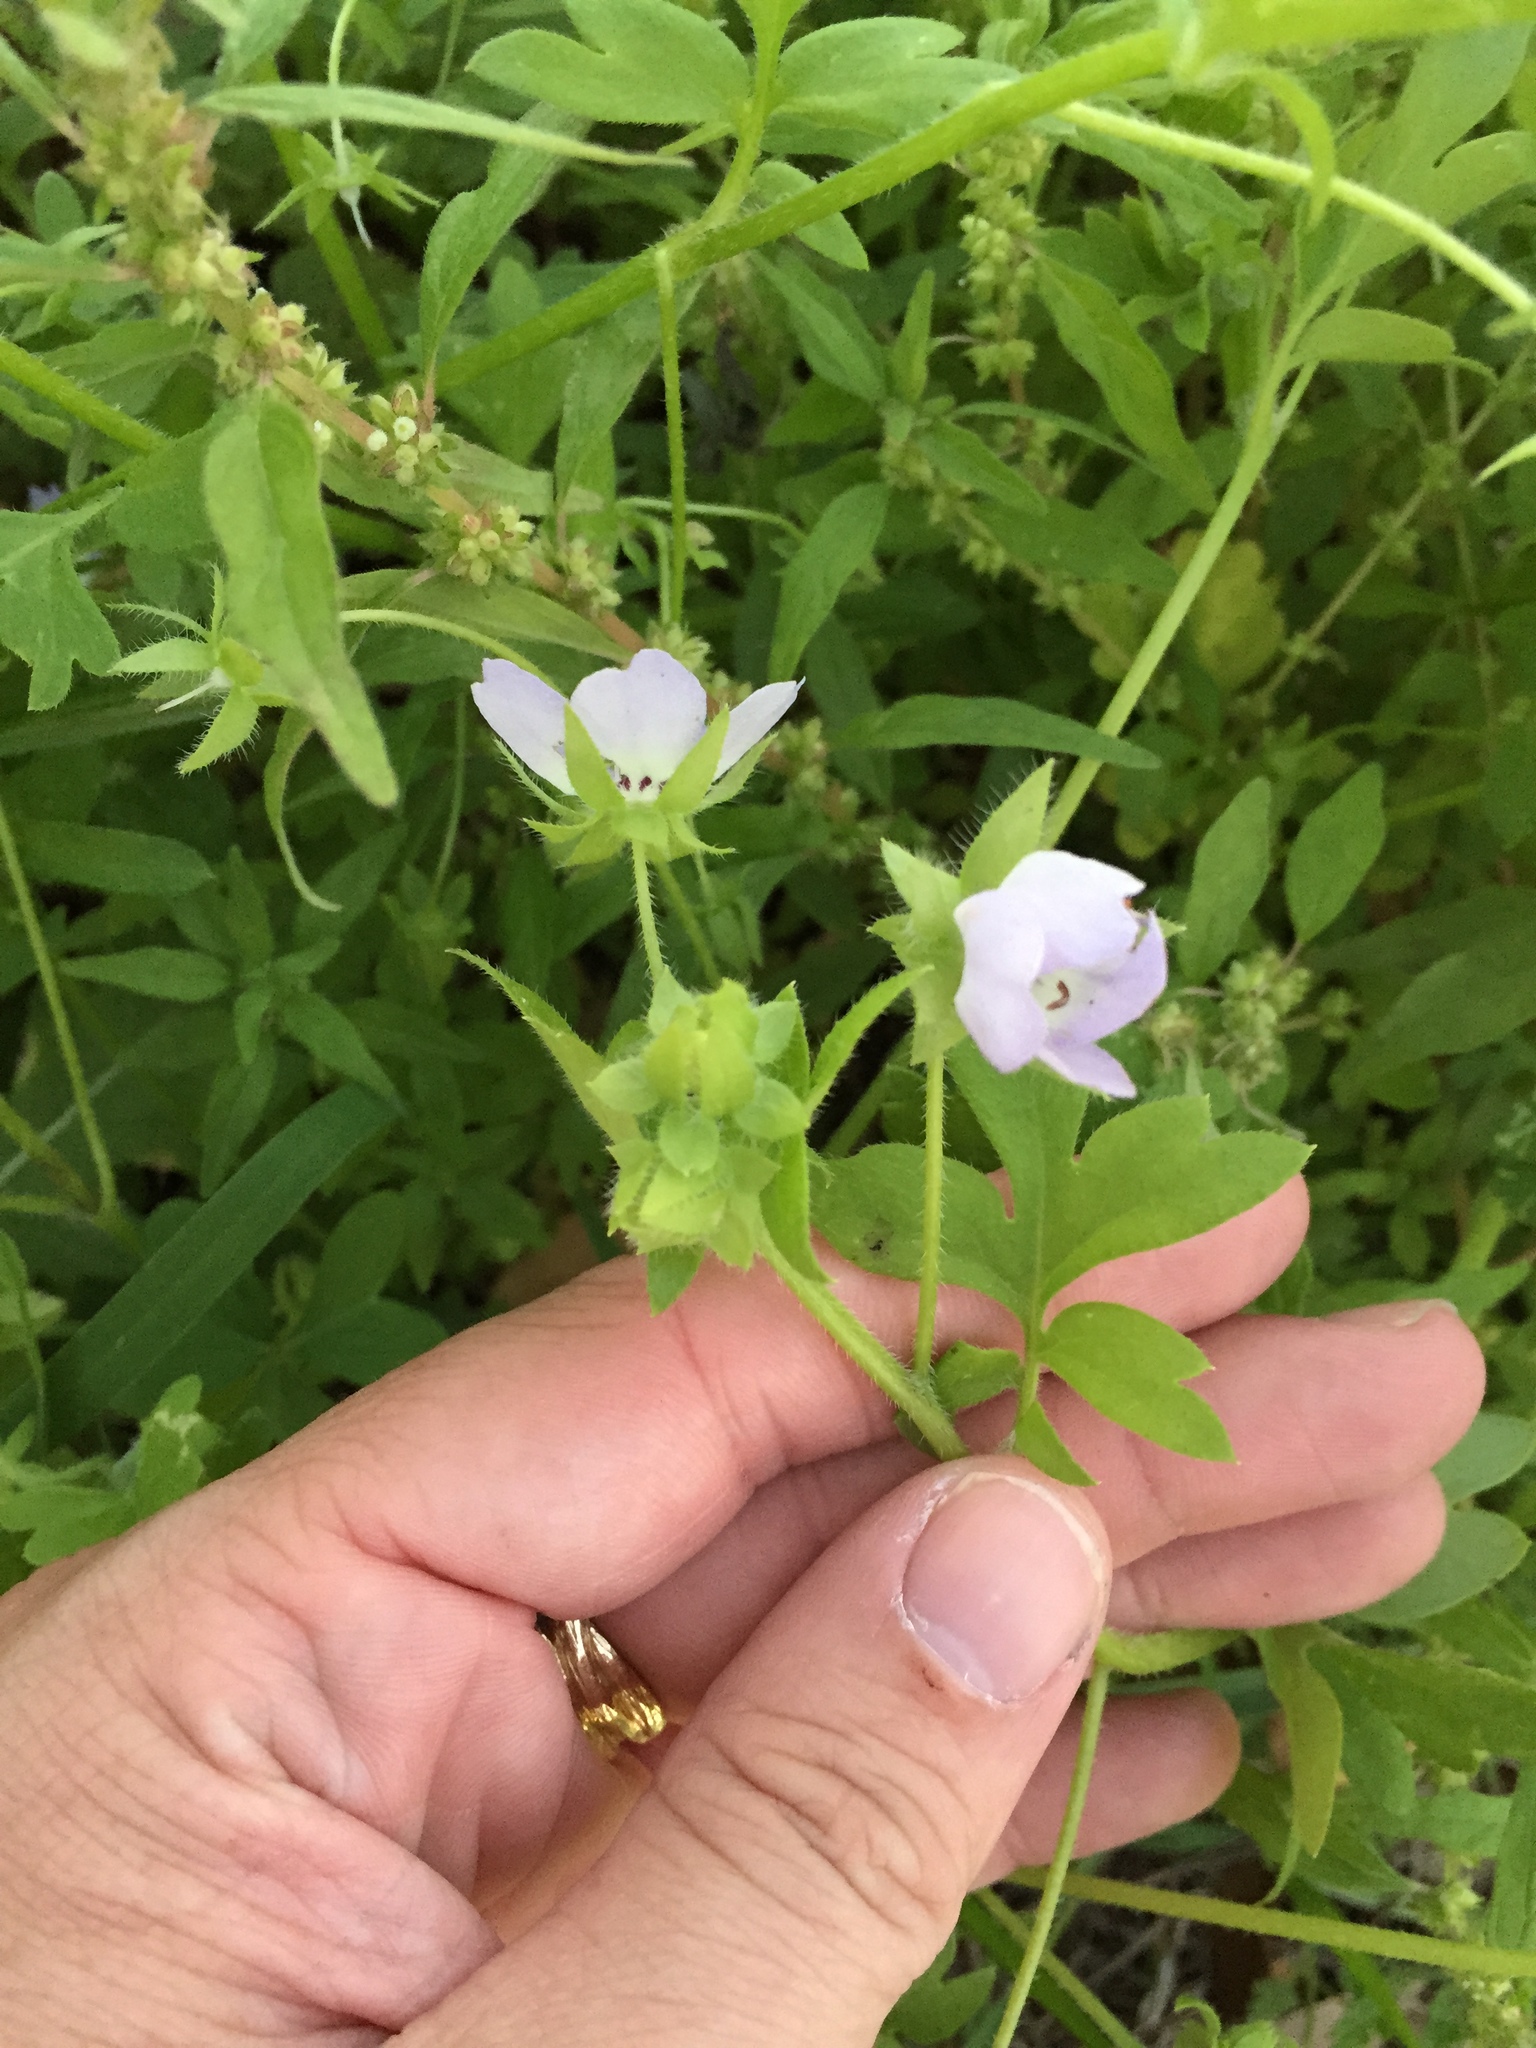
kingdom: Plantae
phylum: Tracheophyta
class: Magnoliopsida
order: Boraginales
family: Hydrophyllaceae
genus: Nemophila
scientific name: Nemophila phacelioides
